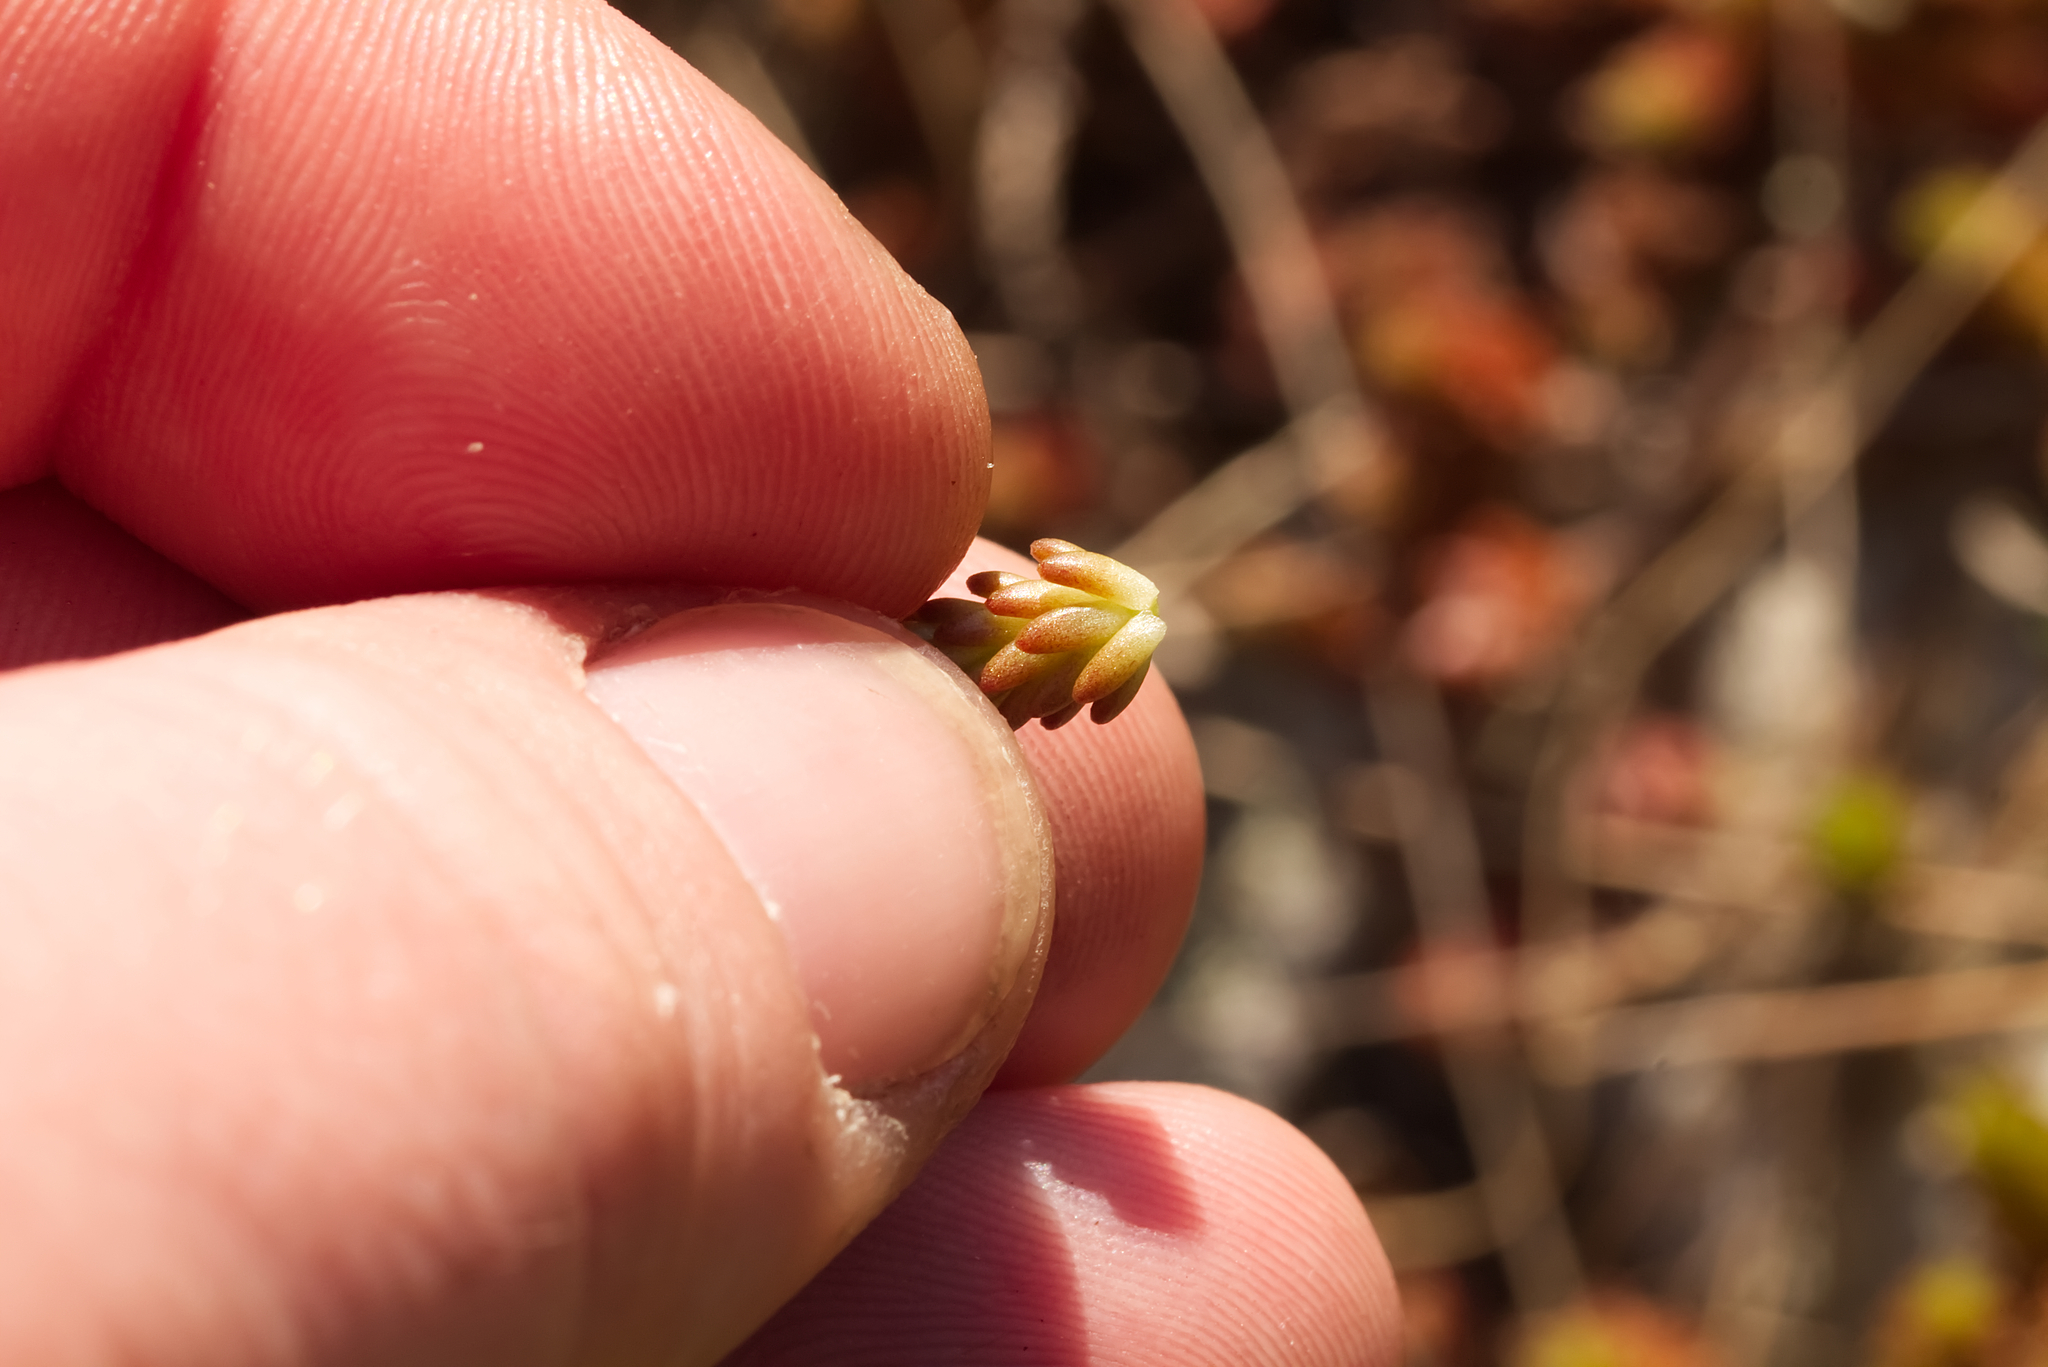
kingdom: Plantae
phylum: Tracheophyta
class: Magnoliopsida
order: Saxifragales
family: Crassulaceae
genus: Sedum
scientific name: Sedum sexangulare
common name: Tasteless stonecrop
